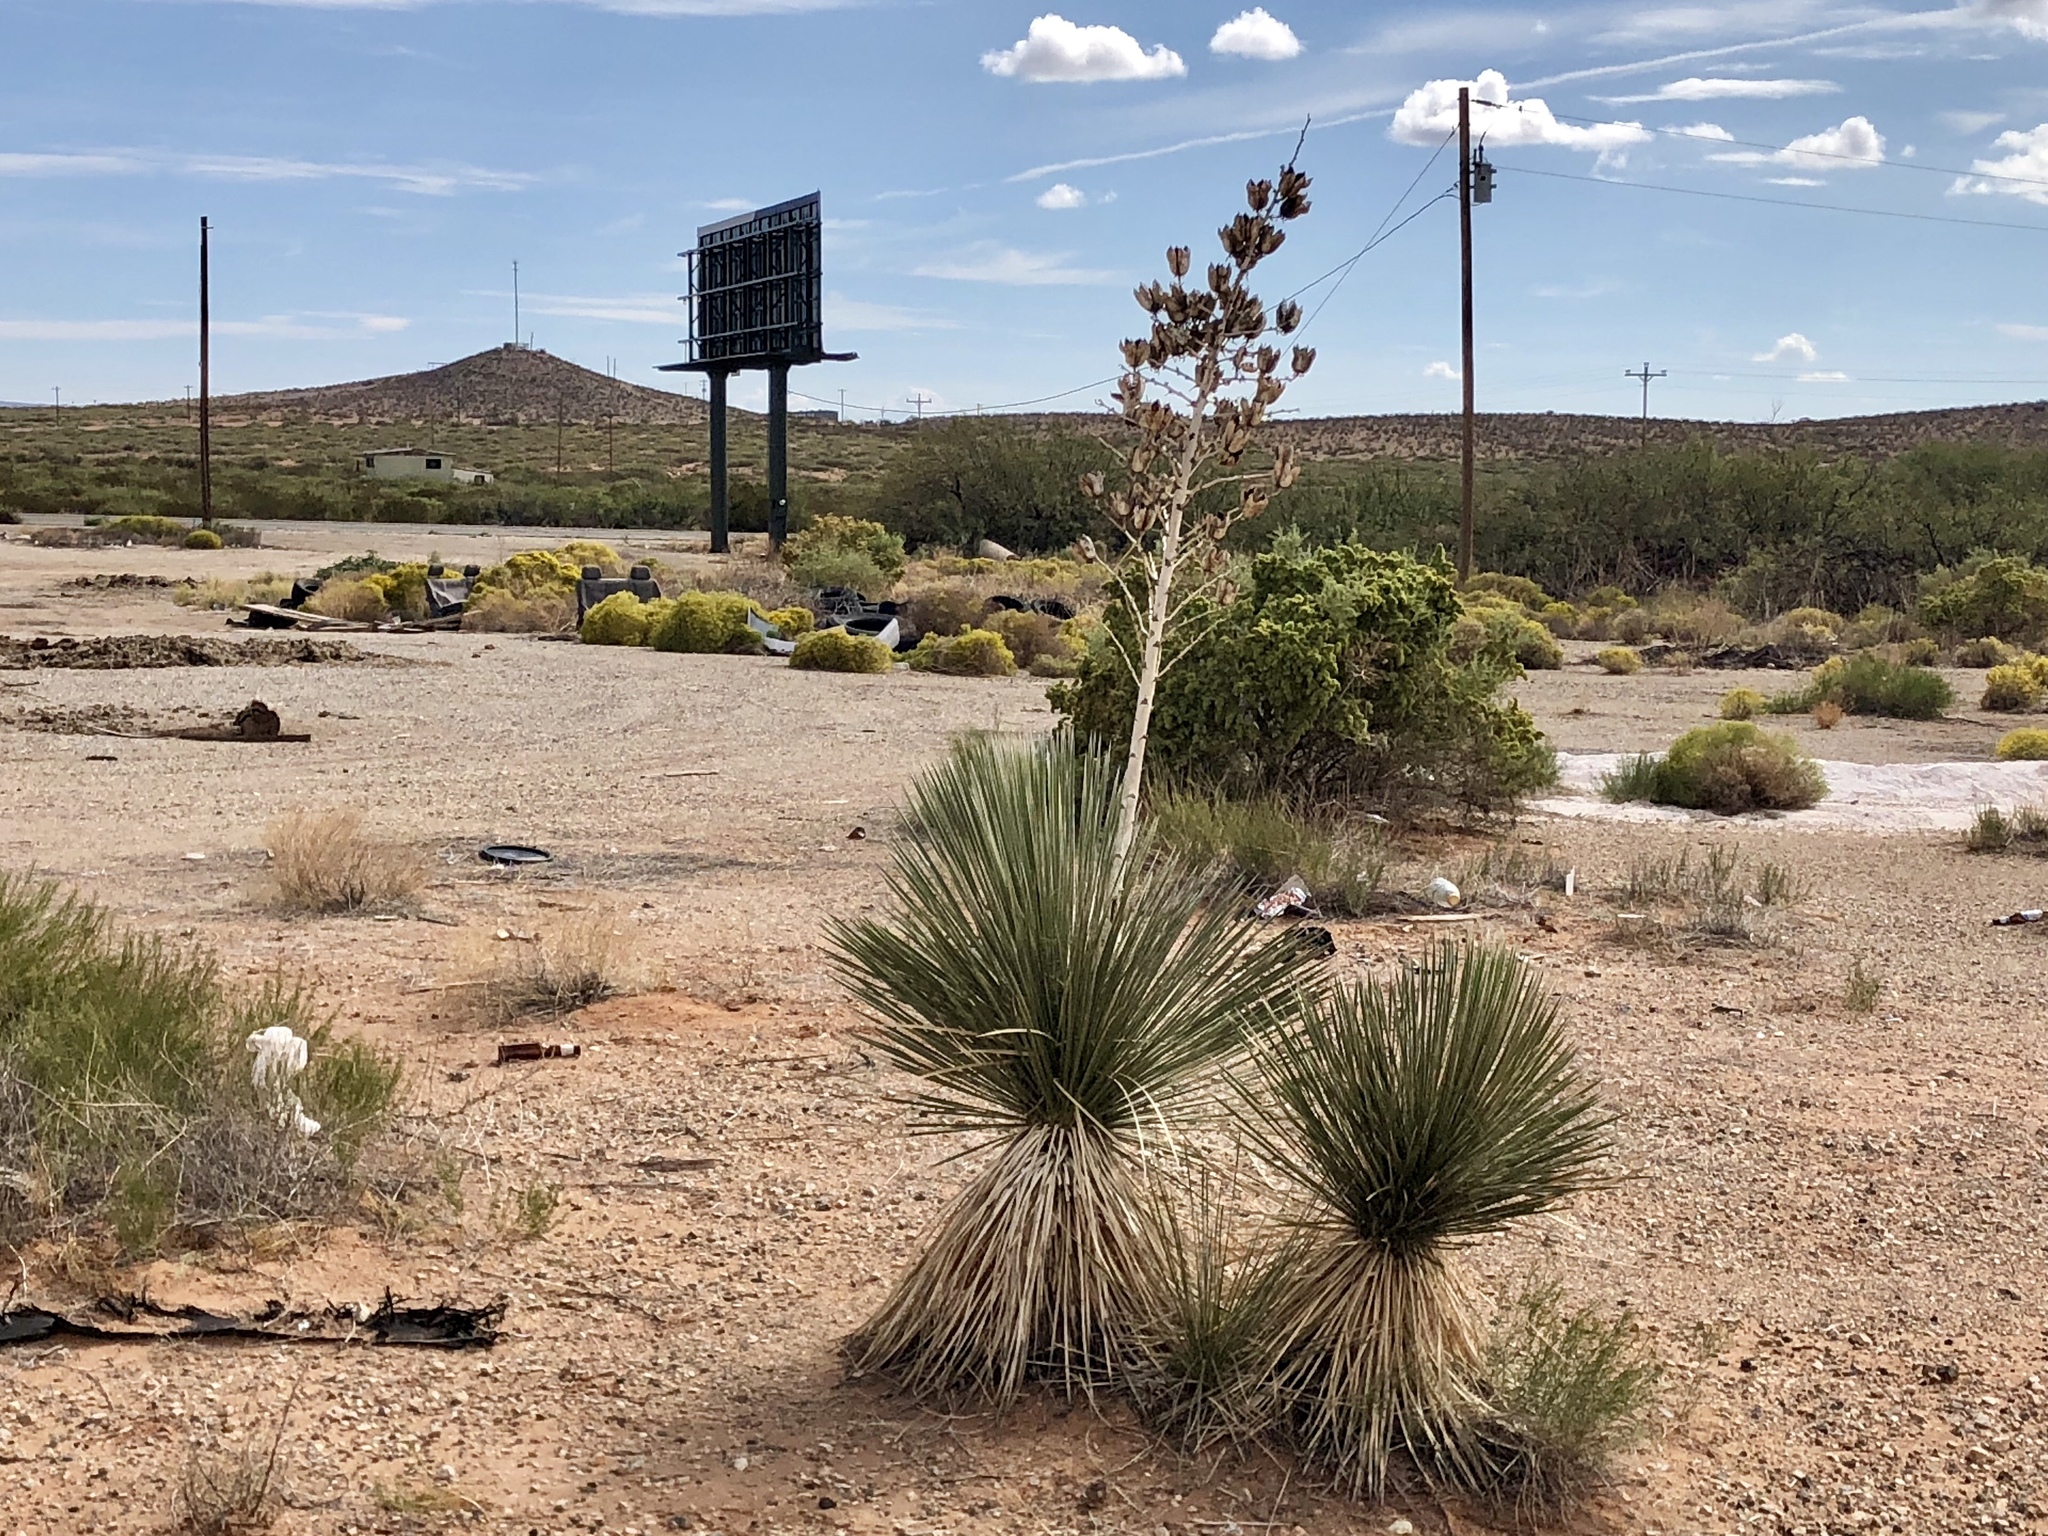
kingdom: Plantae
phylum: Tracheophyta
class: Liliopsida
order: Asparagales
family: Asparagaceae
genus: Yucca
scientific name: Yucca elata
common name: Palmella
